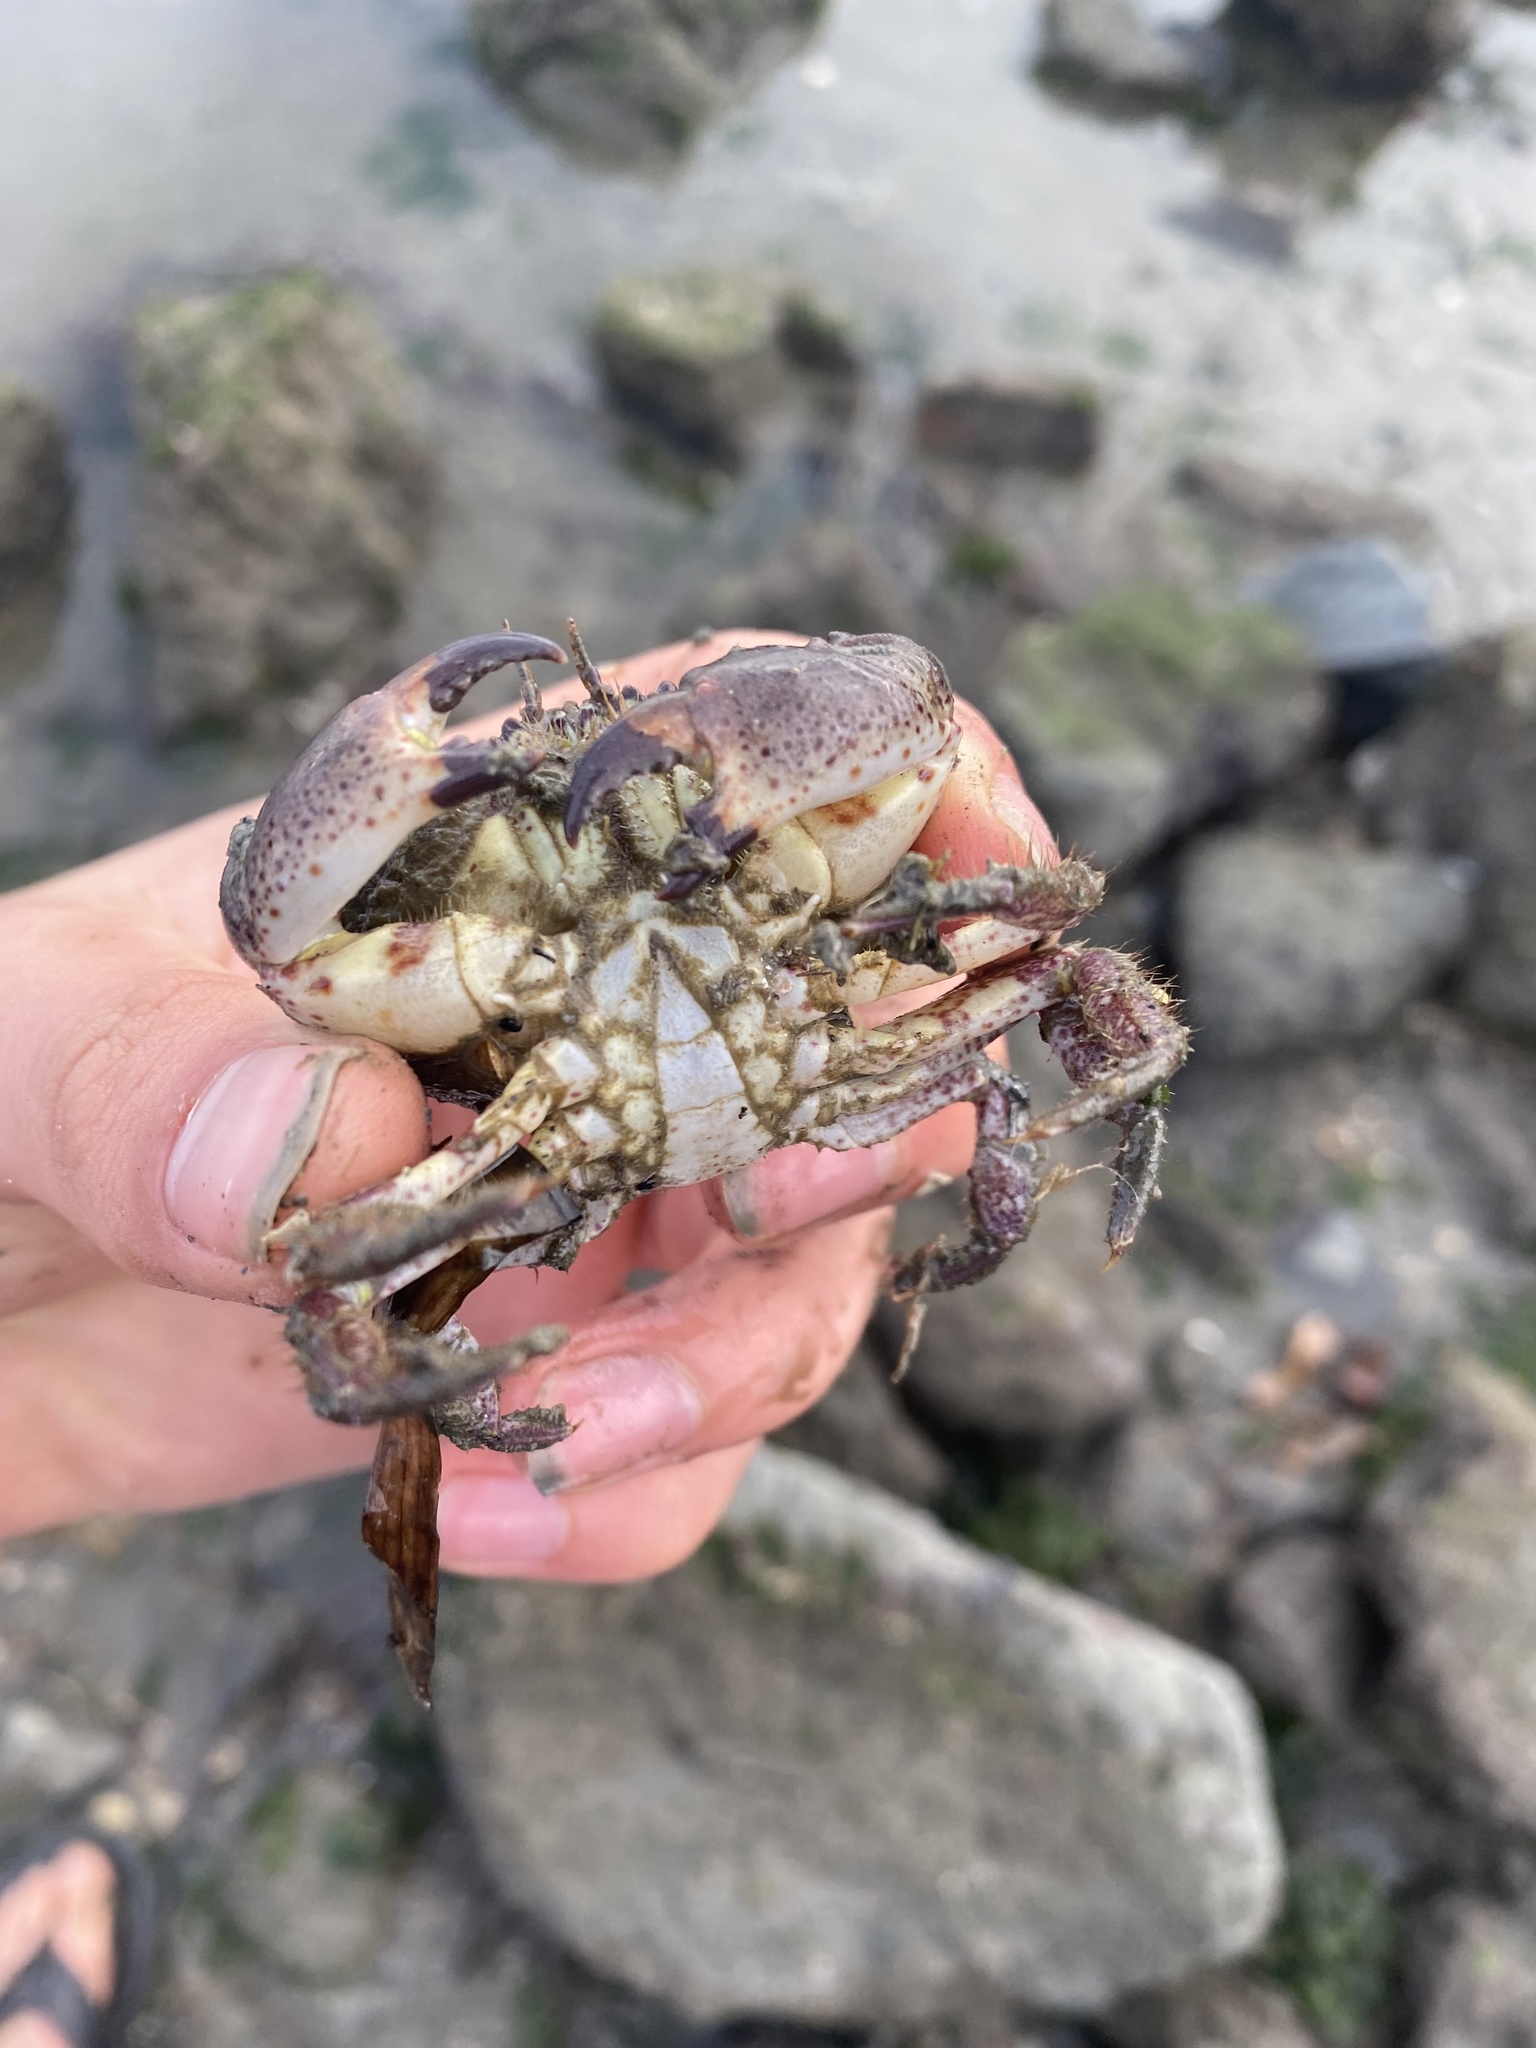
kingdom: Animalia
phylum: Arthropoda
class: Malacostraca
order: Decapoda
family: Cancridae
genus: Romaleon
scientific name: Romaleon antennarium
